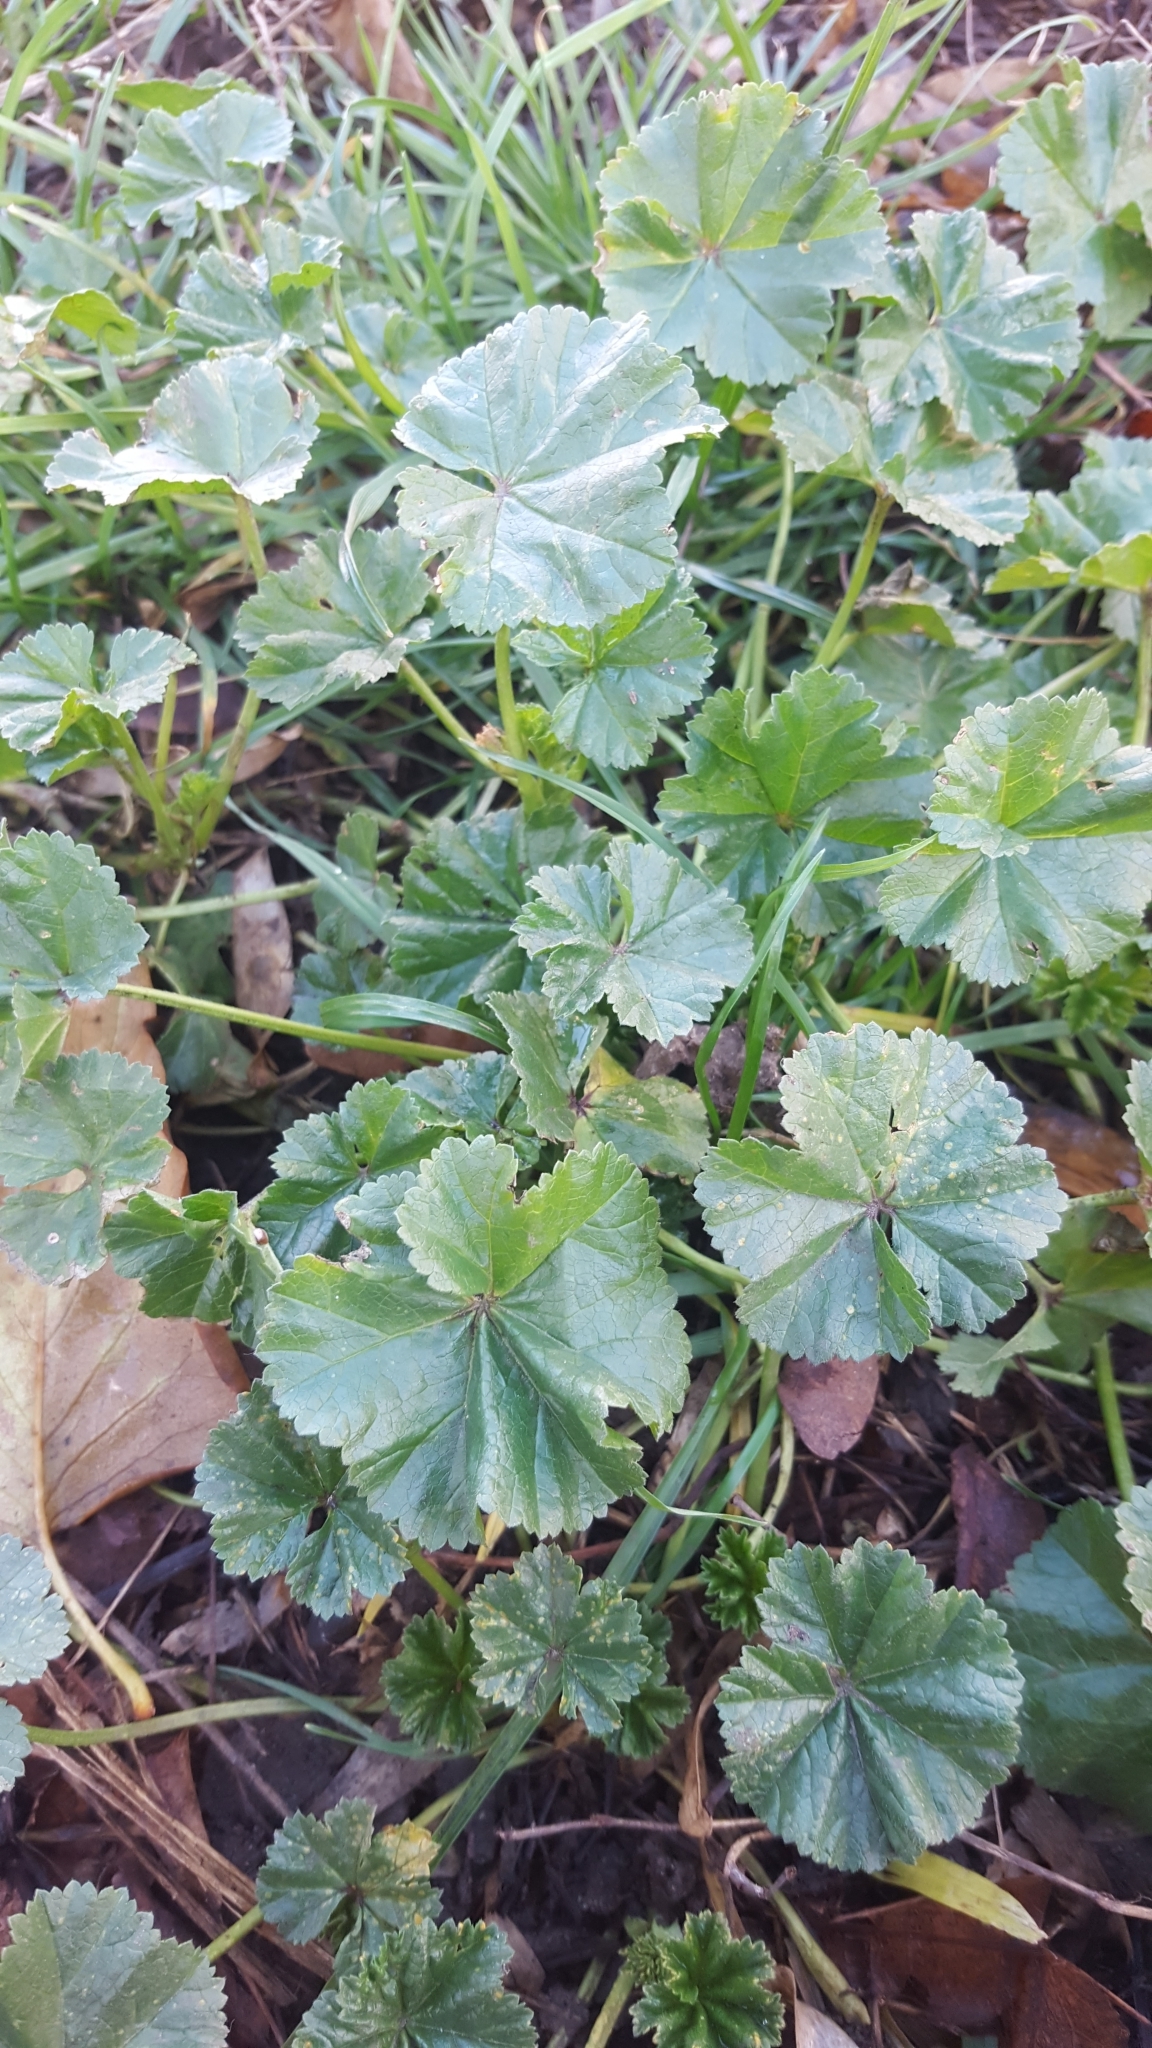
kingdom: Plantae
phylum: Tracheophyta
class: Magnoliopsida
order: Malvales
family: Malvaceae
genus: Malva
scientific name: Malva neglecta
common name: Common mallow
